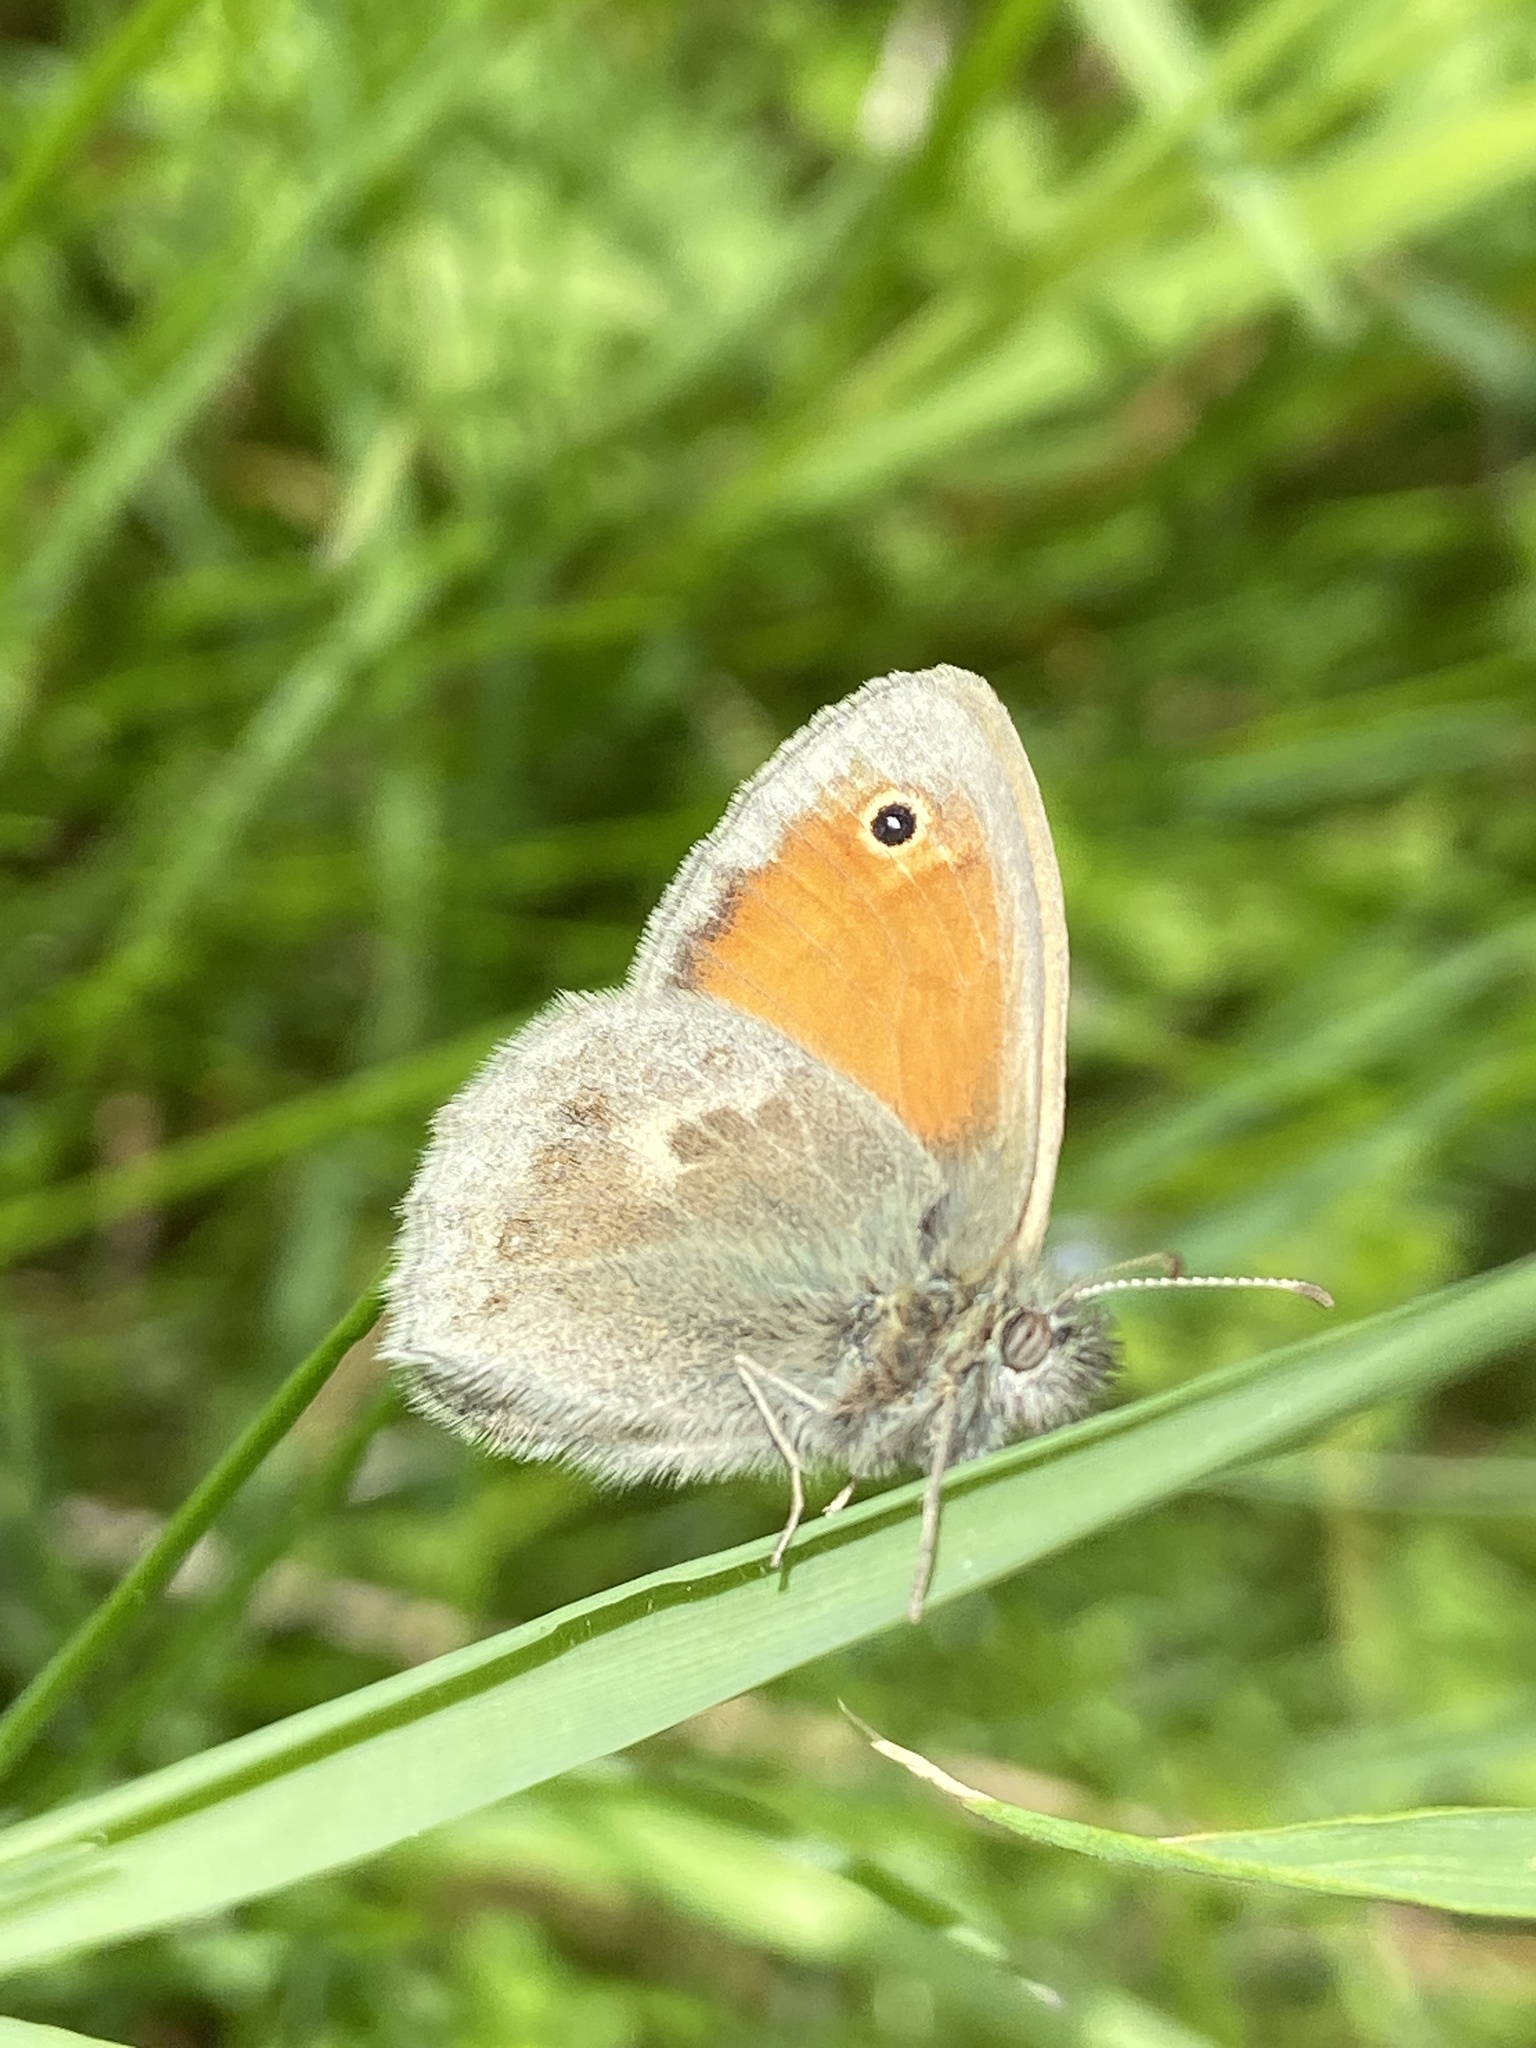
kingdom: Animalia
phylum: Arthropoda
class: Insecta
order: Lepidoptera
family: Nymphalidae
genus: Coenonympha
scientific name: Coenonympha pamphilus
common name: Small heath
